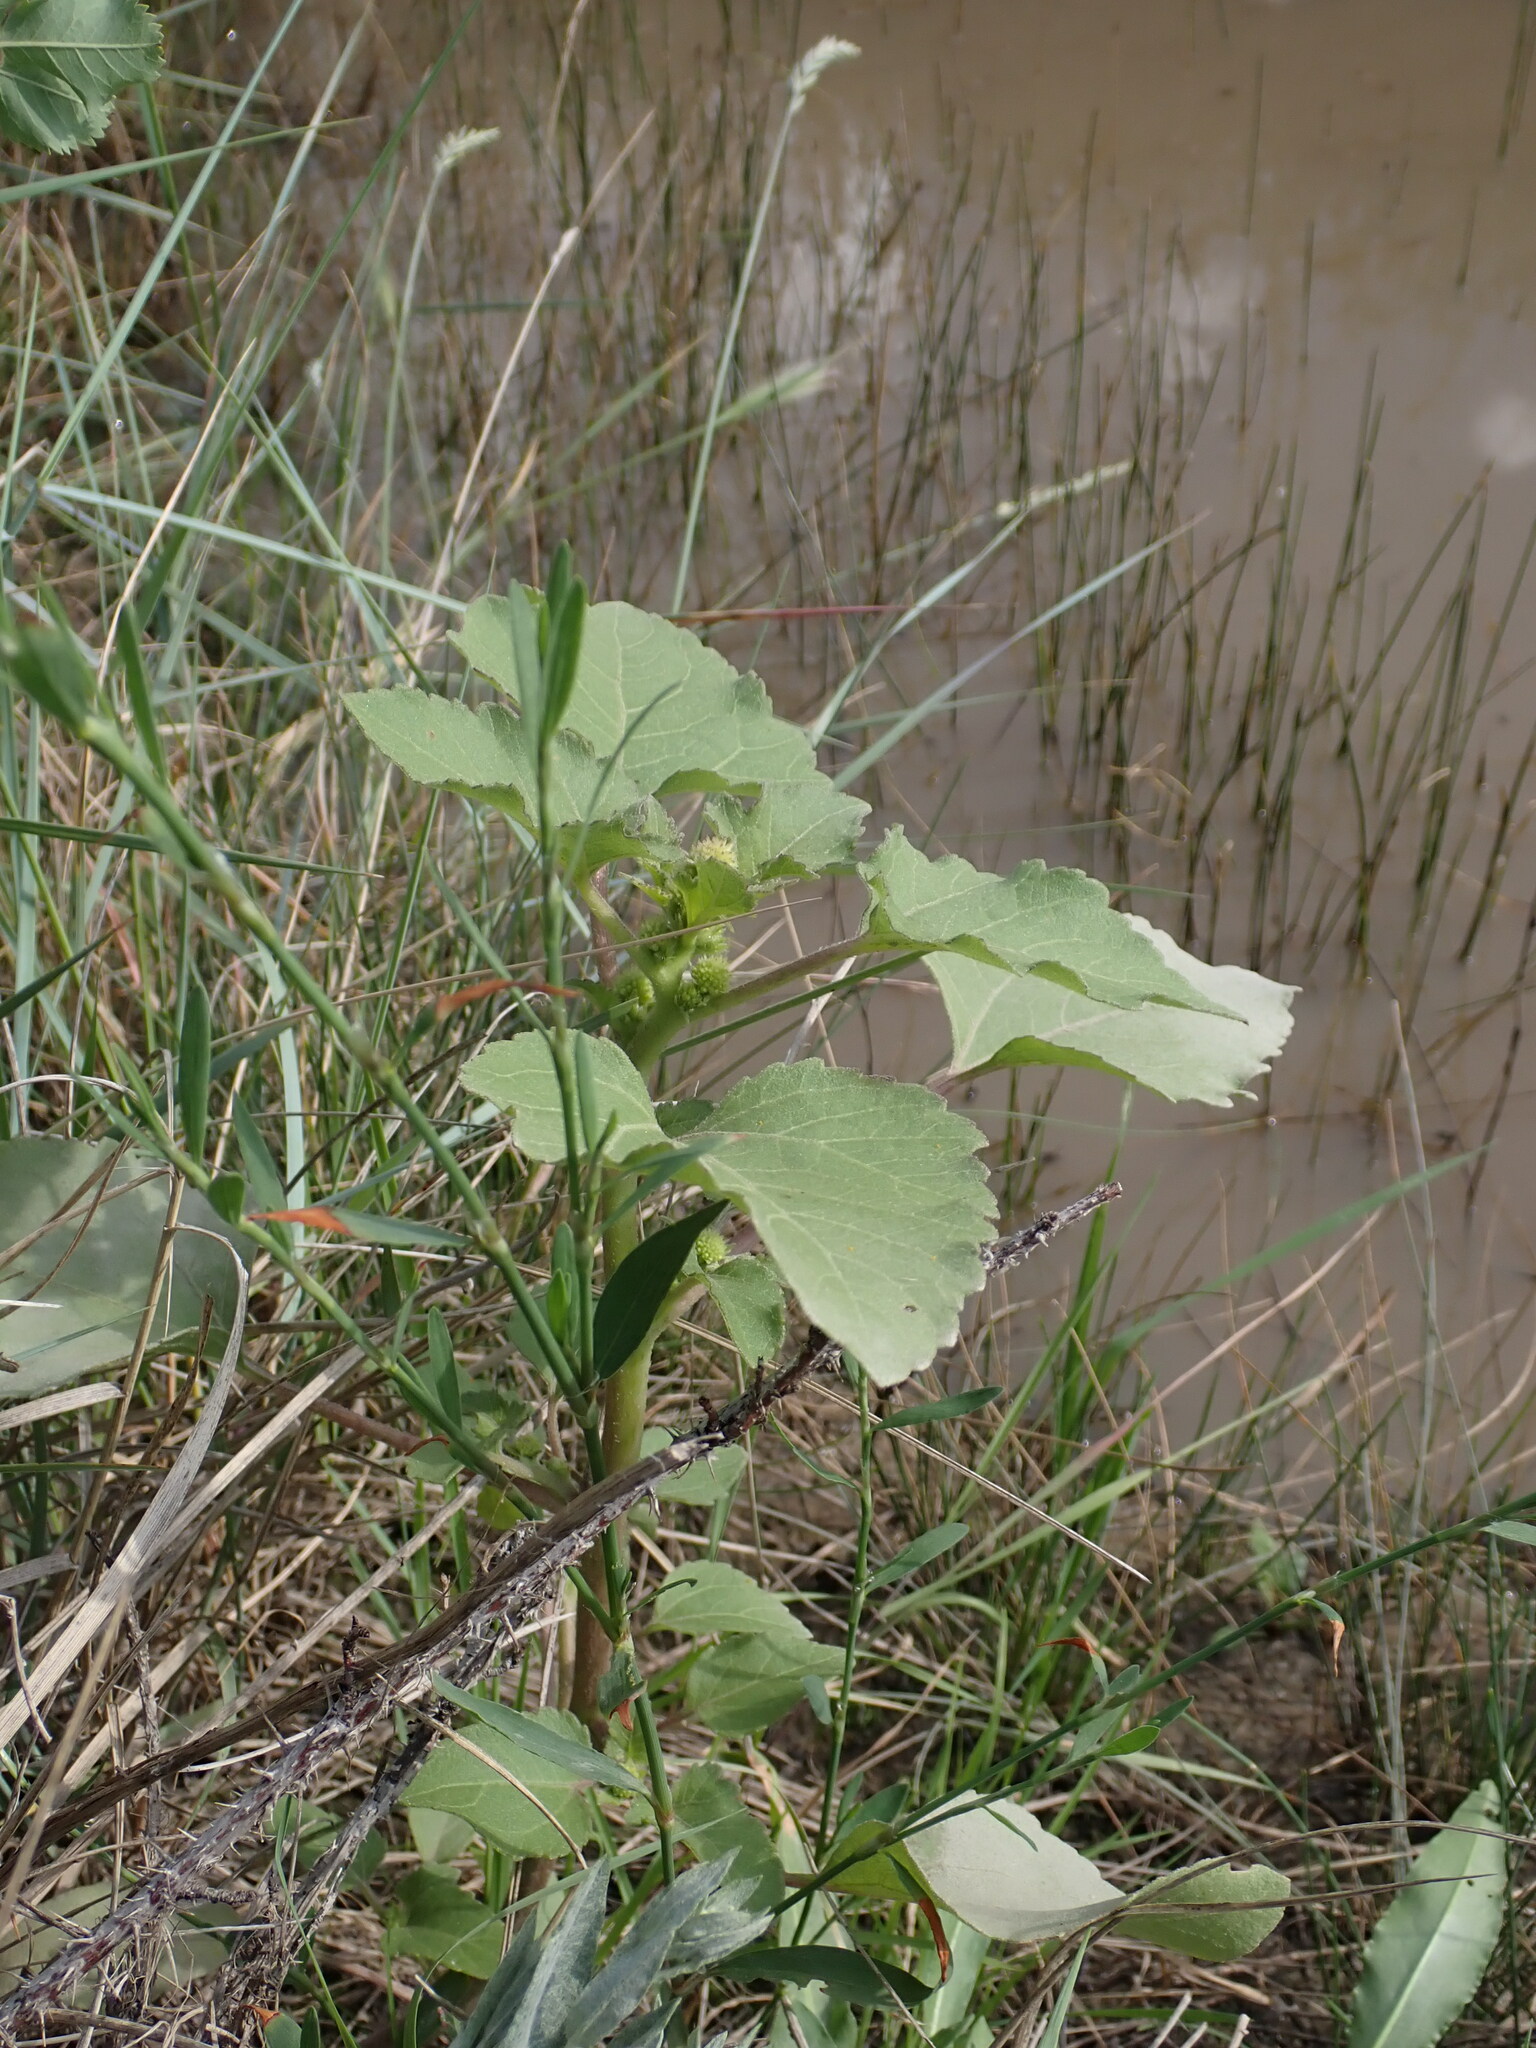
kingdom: Plantae
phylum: Tracheophyta
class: Magnoliopsida
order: Asterales
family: Asteraceae
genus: Xanthium
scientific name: Xanthium strumarium
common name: Rough cocklebur
